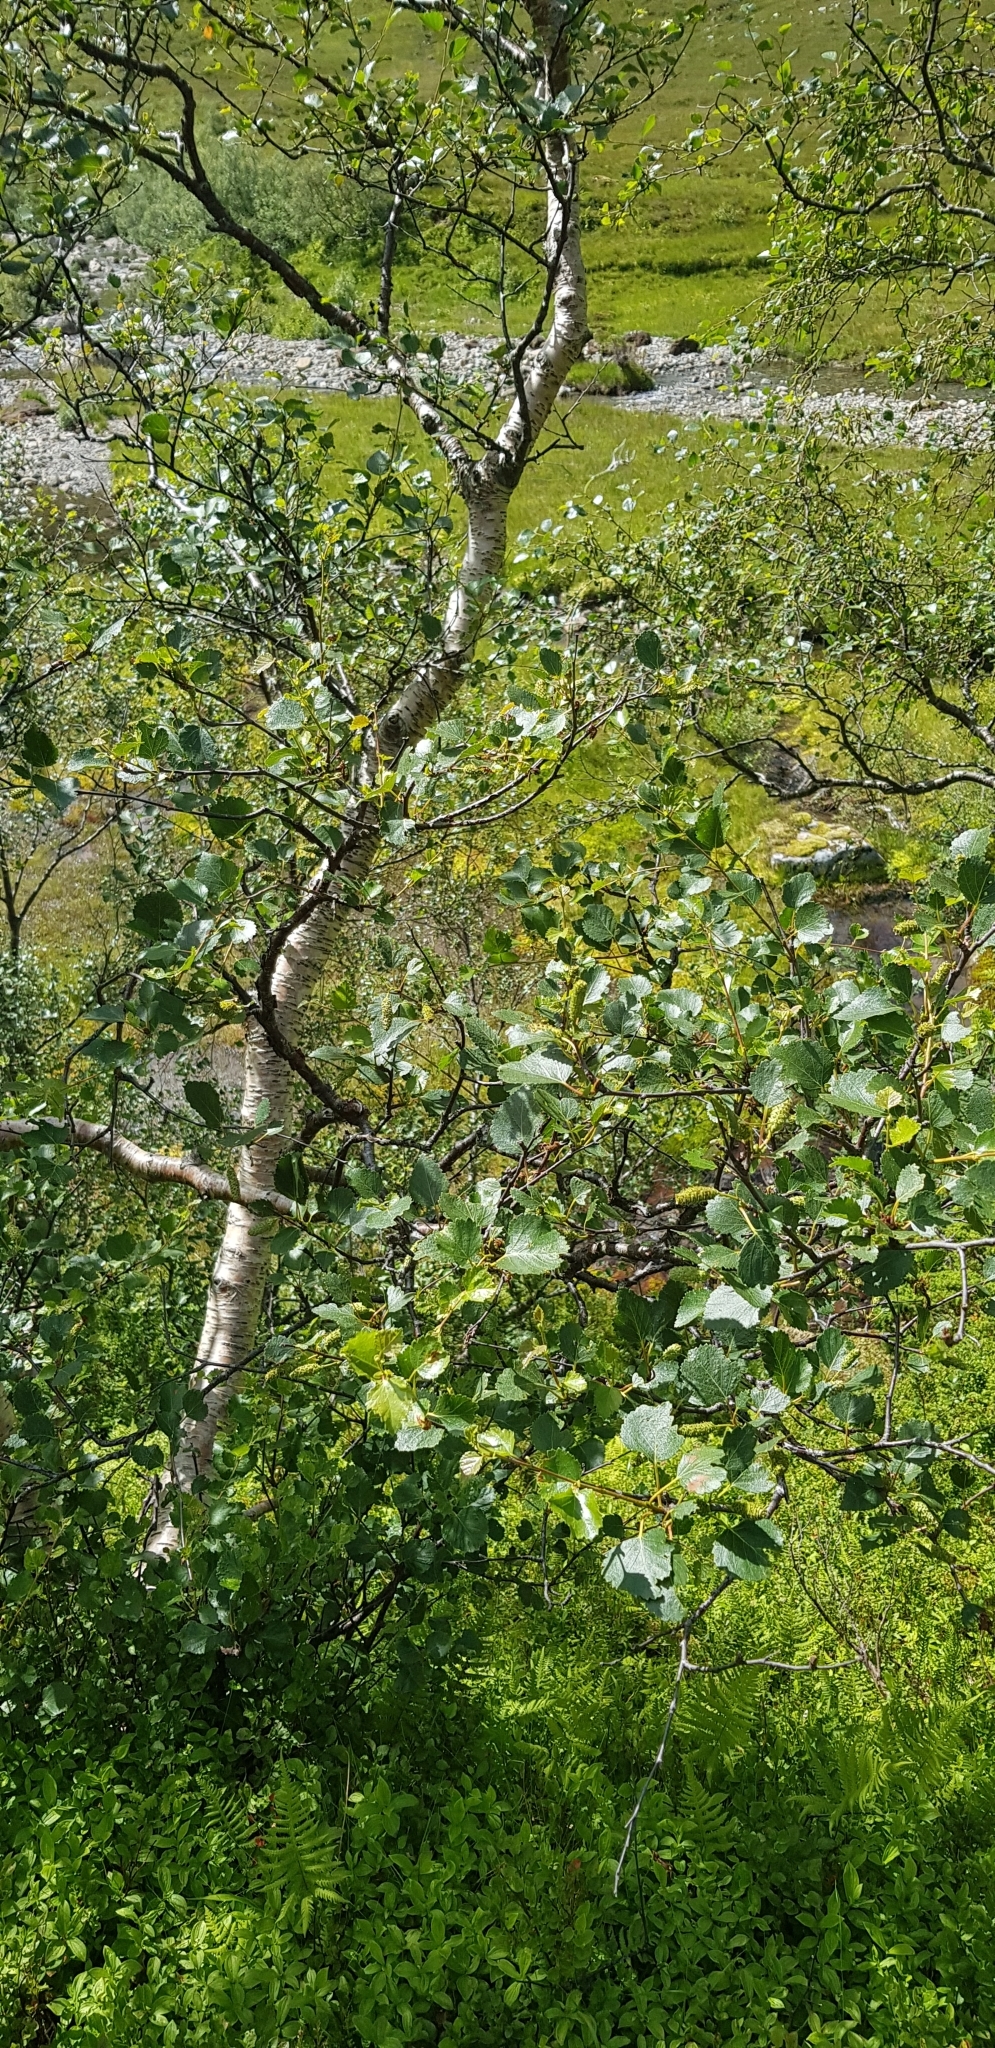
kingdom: Plantae
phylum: Tracheophyta
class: Magnoliopsida
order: Fagales
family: Betulaceae
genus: Betula
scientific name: Betula pubescens
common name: Downy birch
